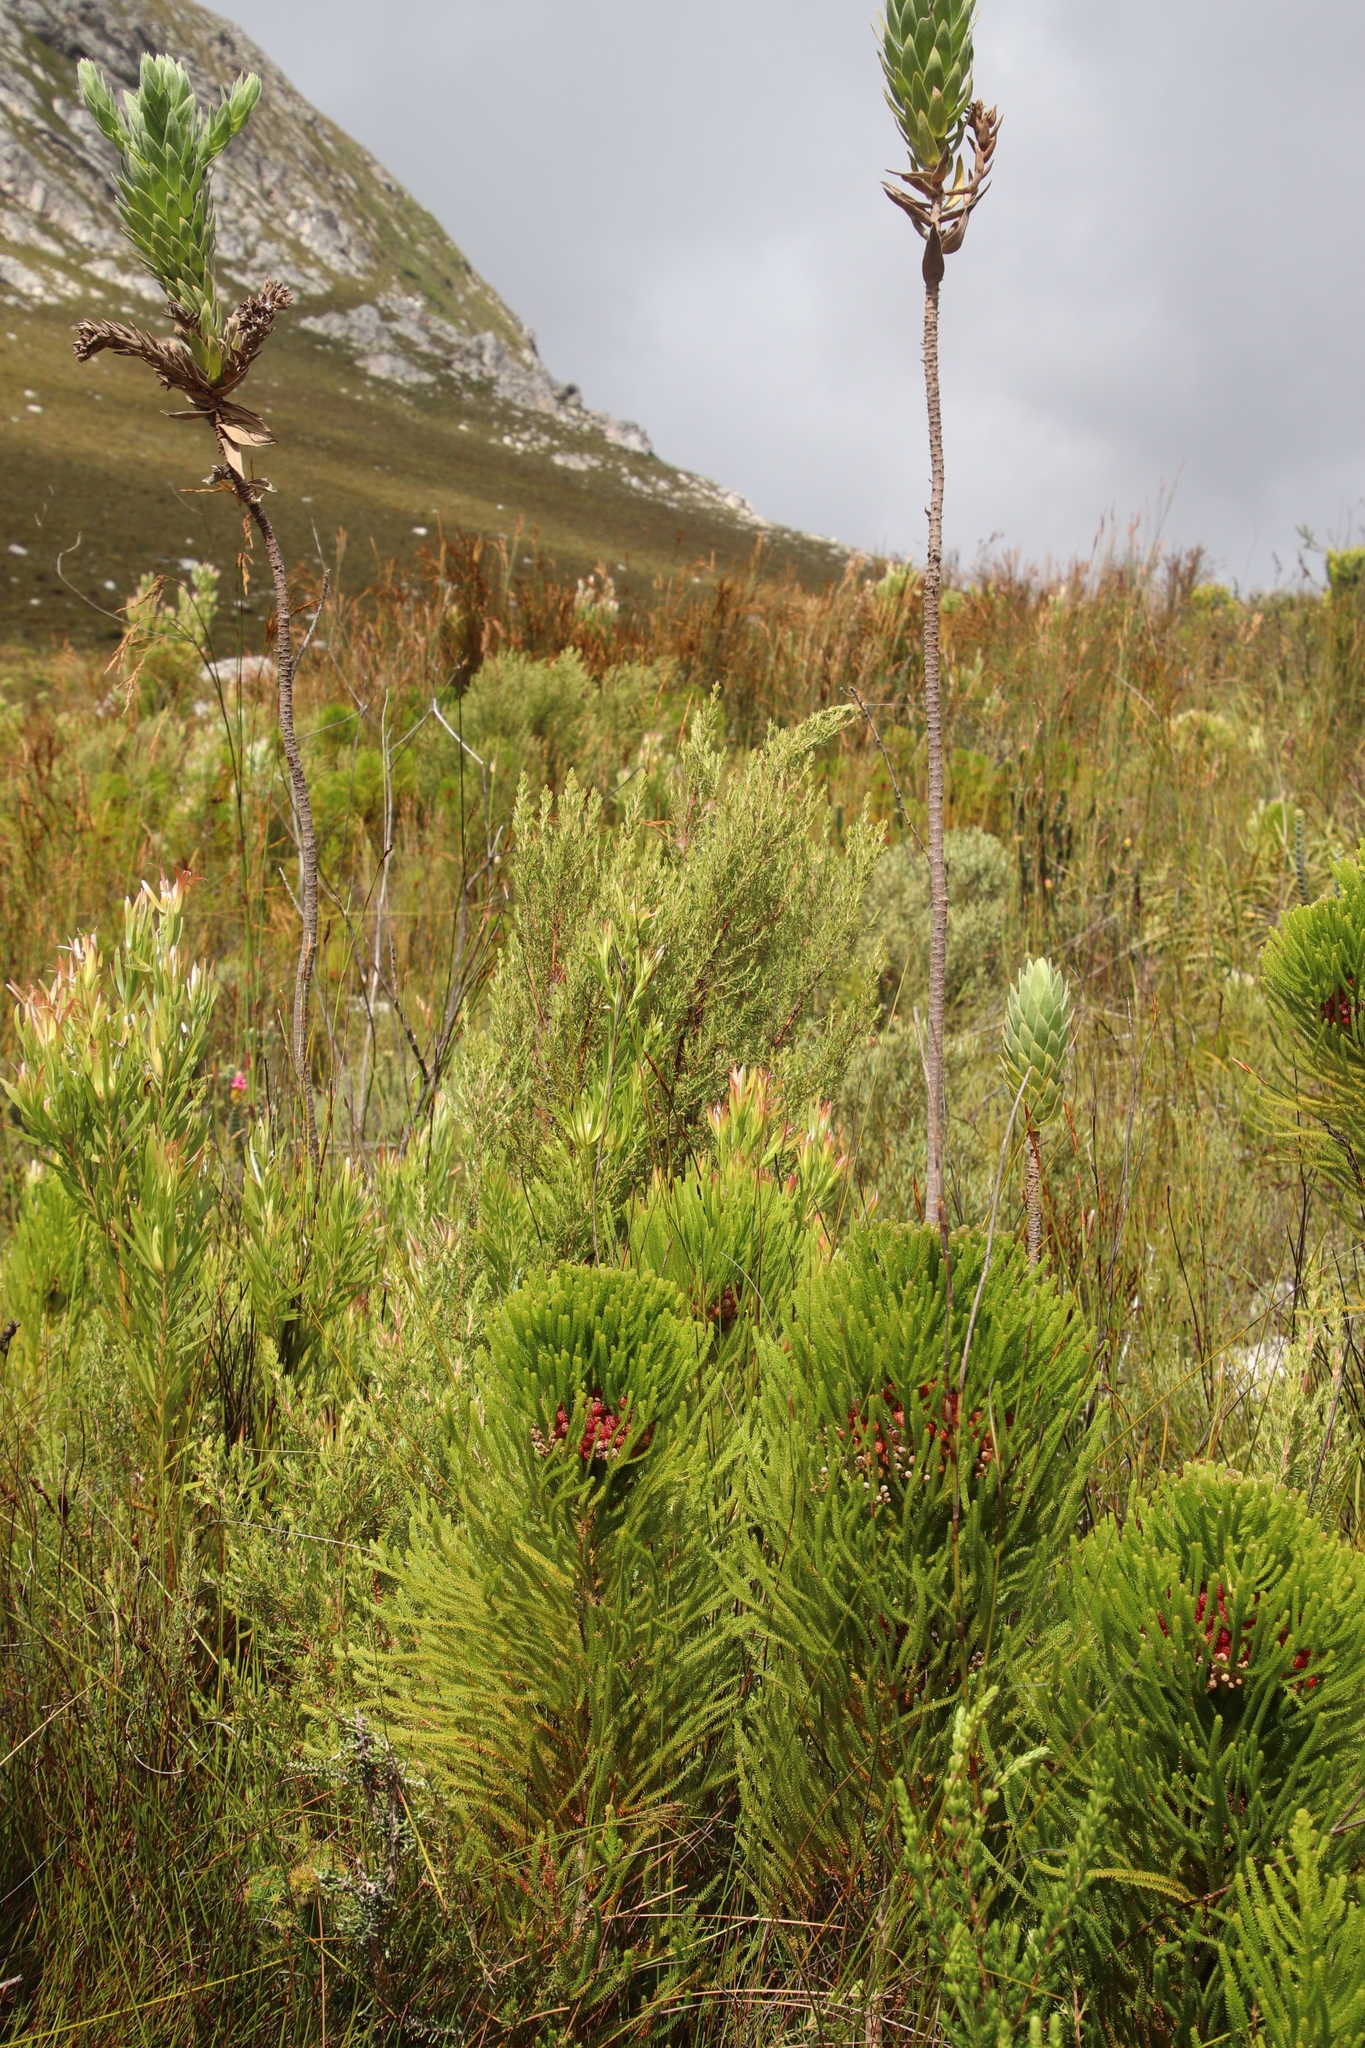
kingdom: Plantae
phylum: Tracheophyta
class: Magnoliopsida
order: Cornales
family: Grubbiaceae
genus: Grubbia
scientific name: Grubbia rosmarinifolia
